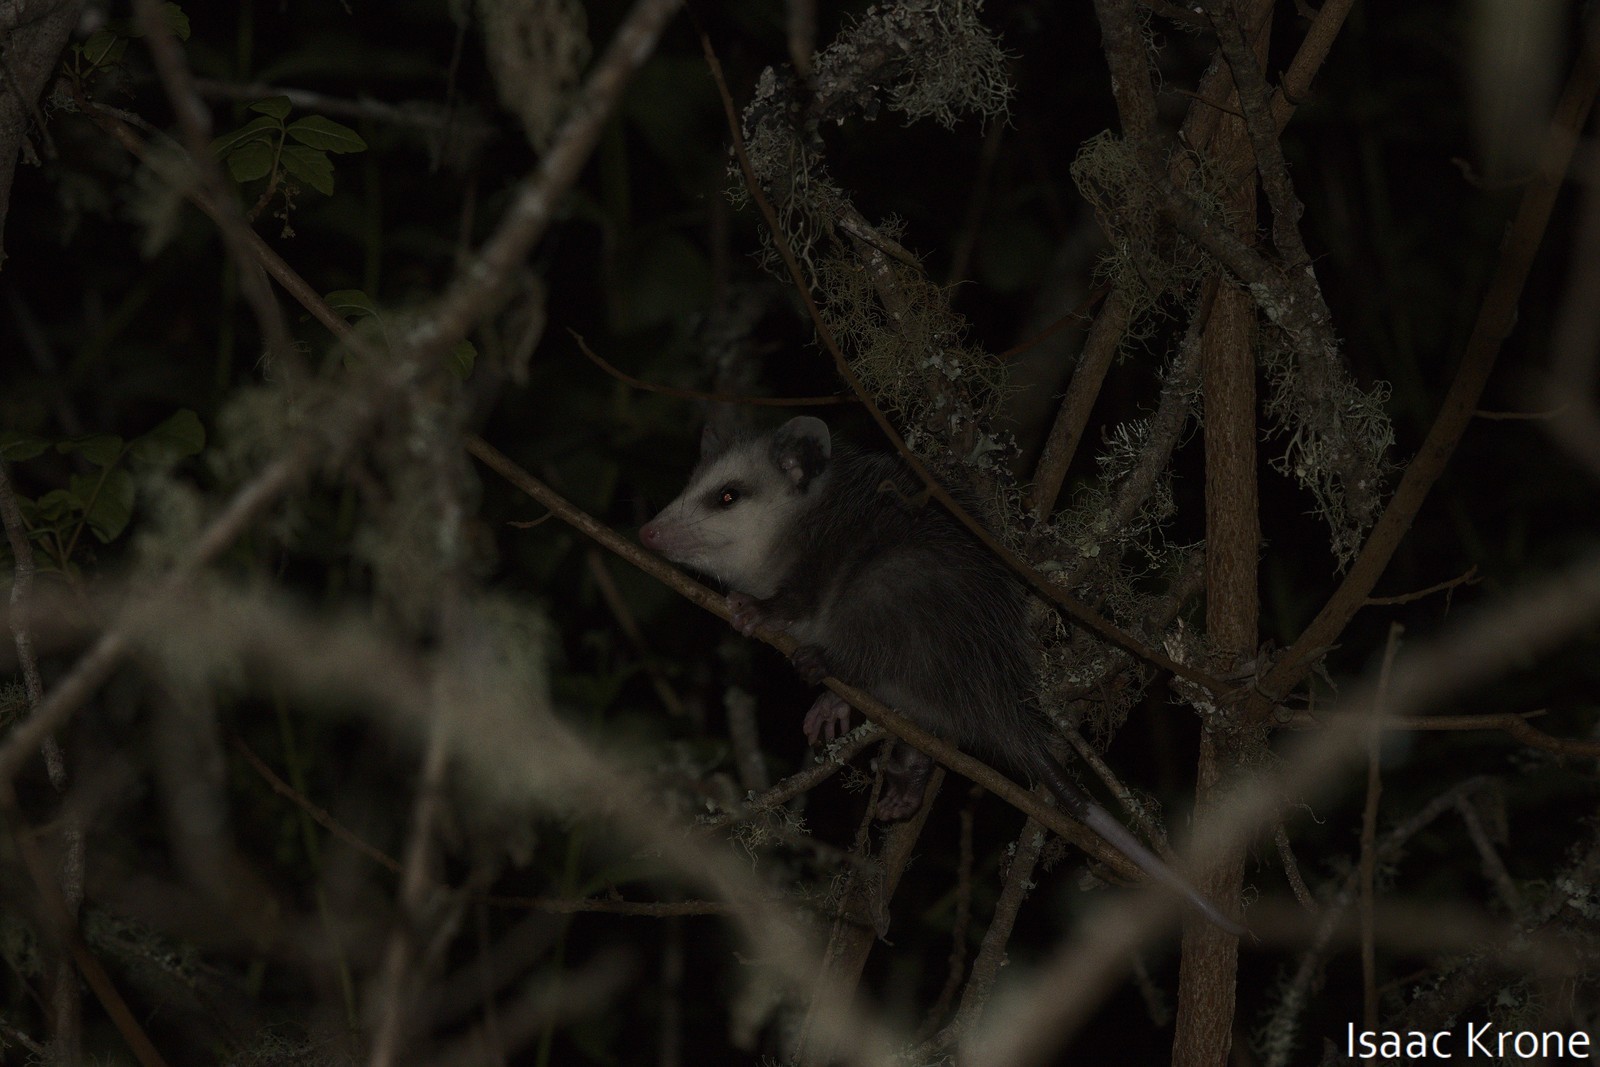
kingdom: Animalia
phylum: Chordata
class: Mammalia
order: Didelphimorphia
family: Didelphidae
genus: Didelphis
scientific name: Didelphis virginiana
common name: Virginia opossum
